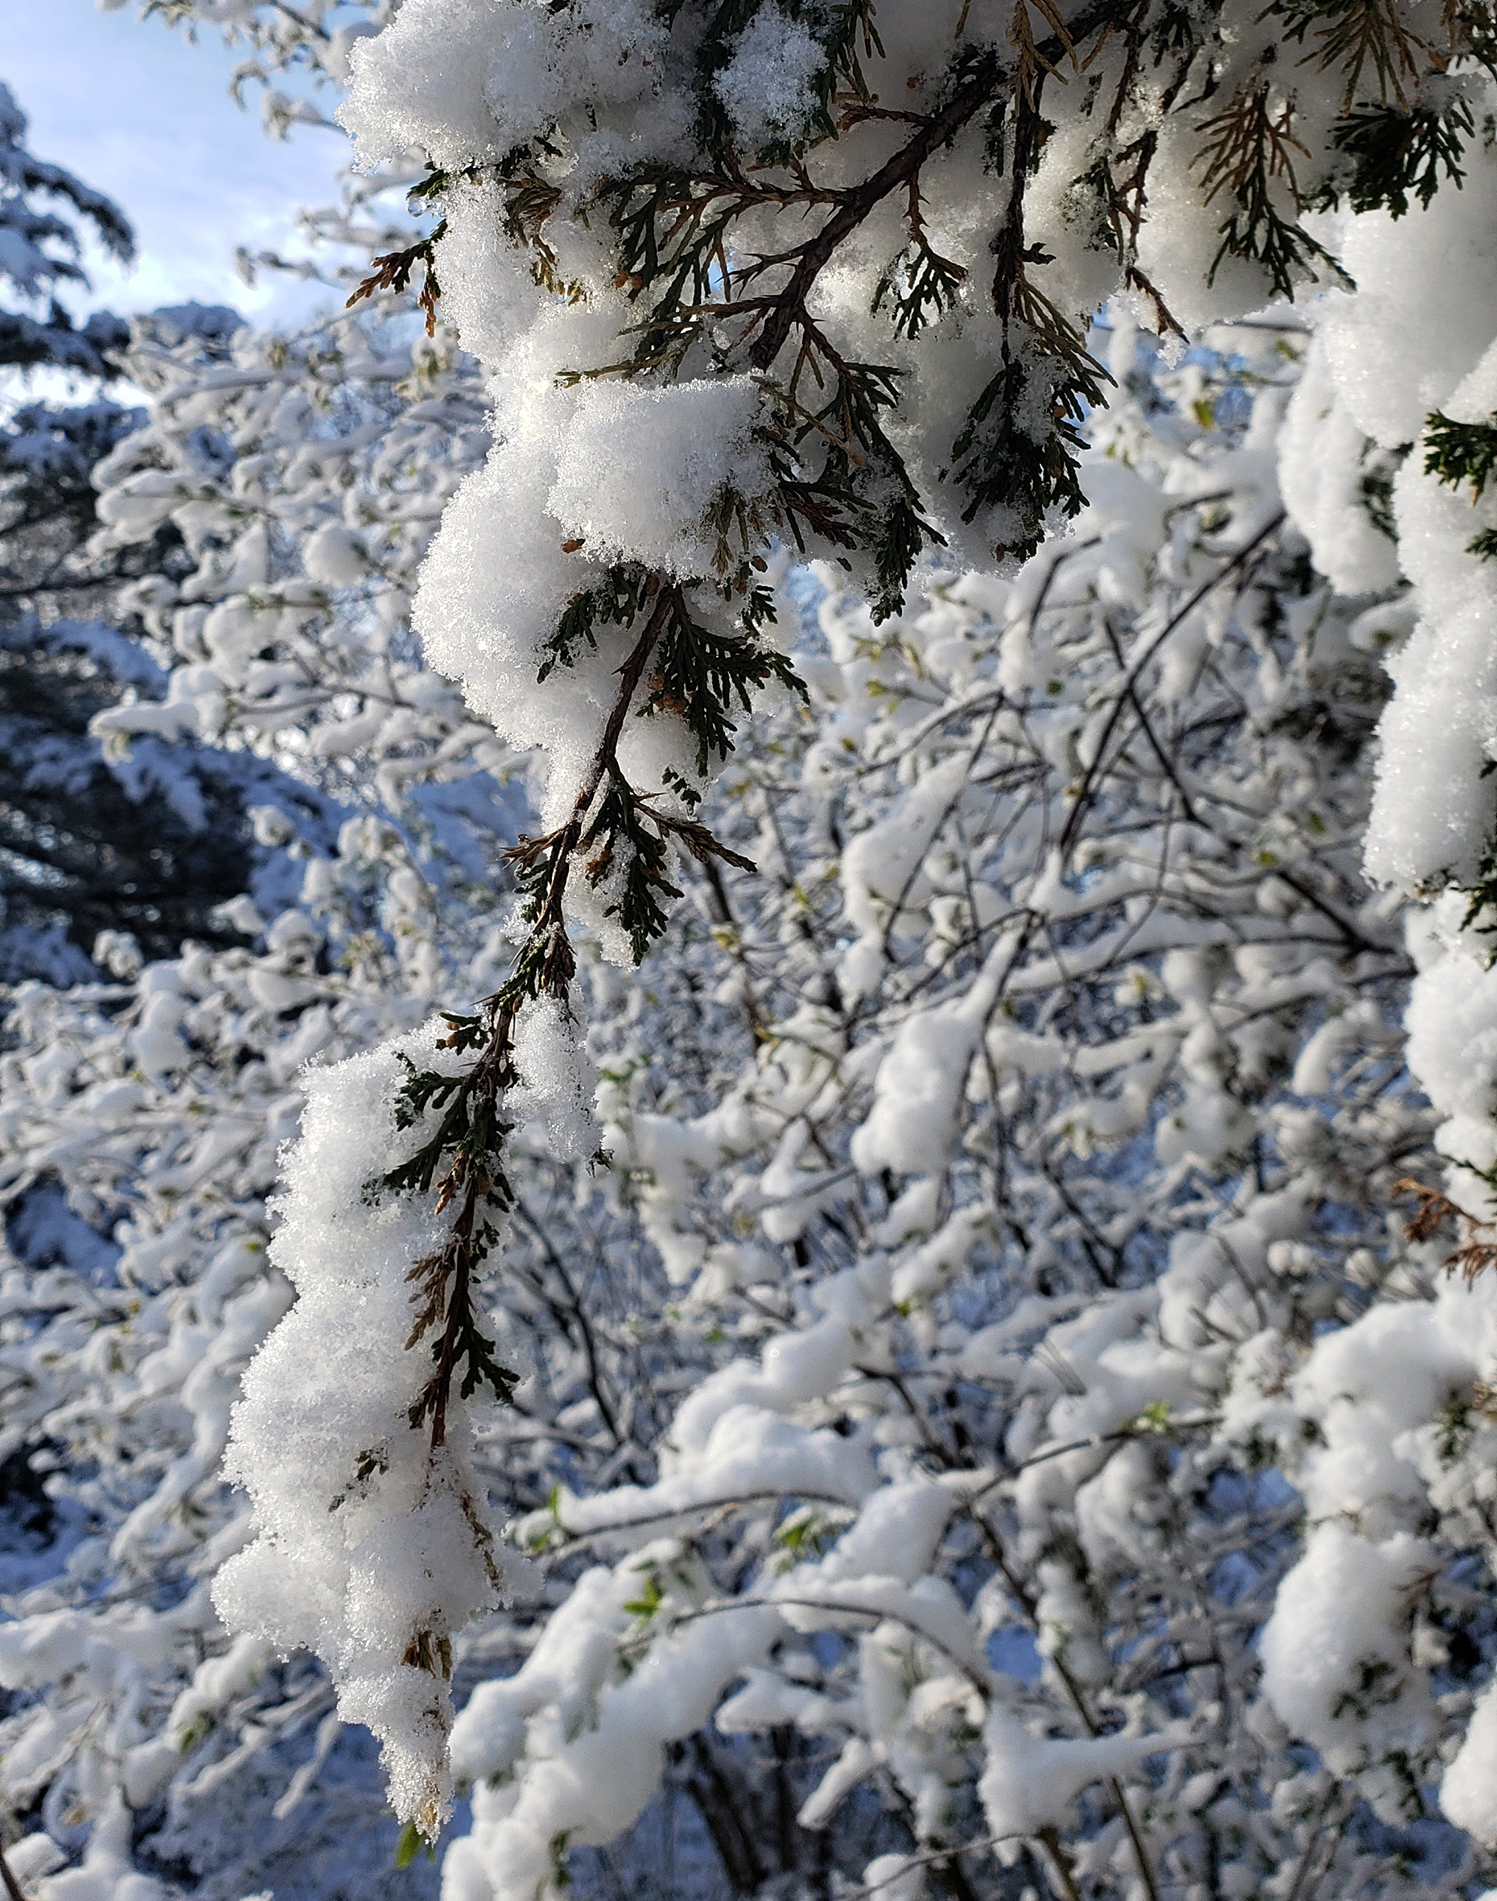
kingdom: Plantae
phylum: Tracheophyta
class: Pinopsida
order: Pinales
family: Cupressaceae
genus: Juniperus
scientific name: Juniperus virginiana
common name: Red juniper
